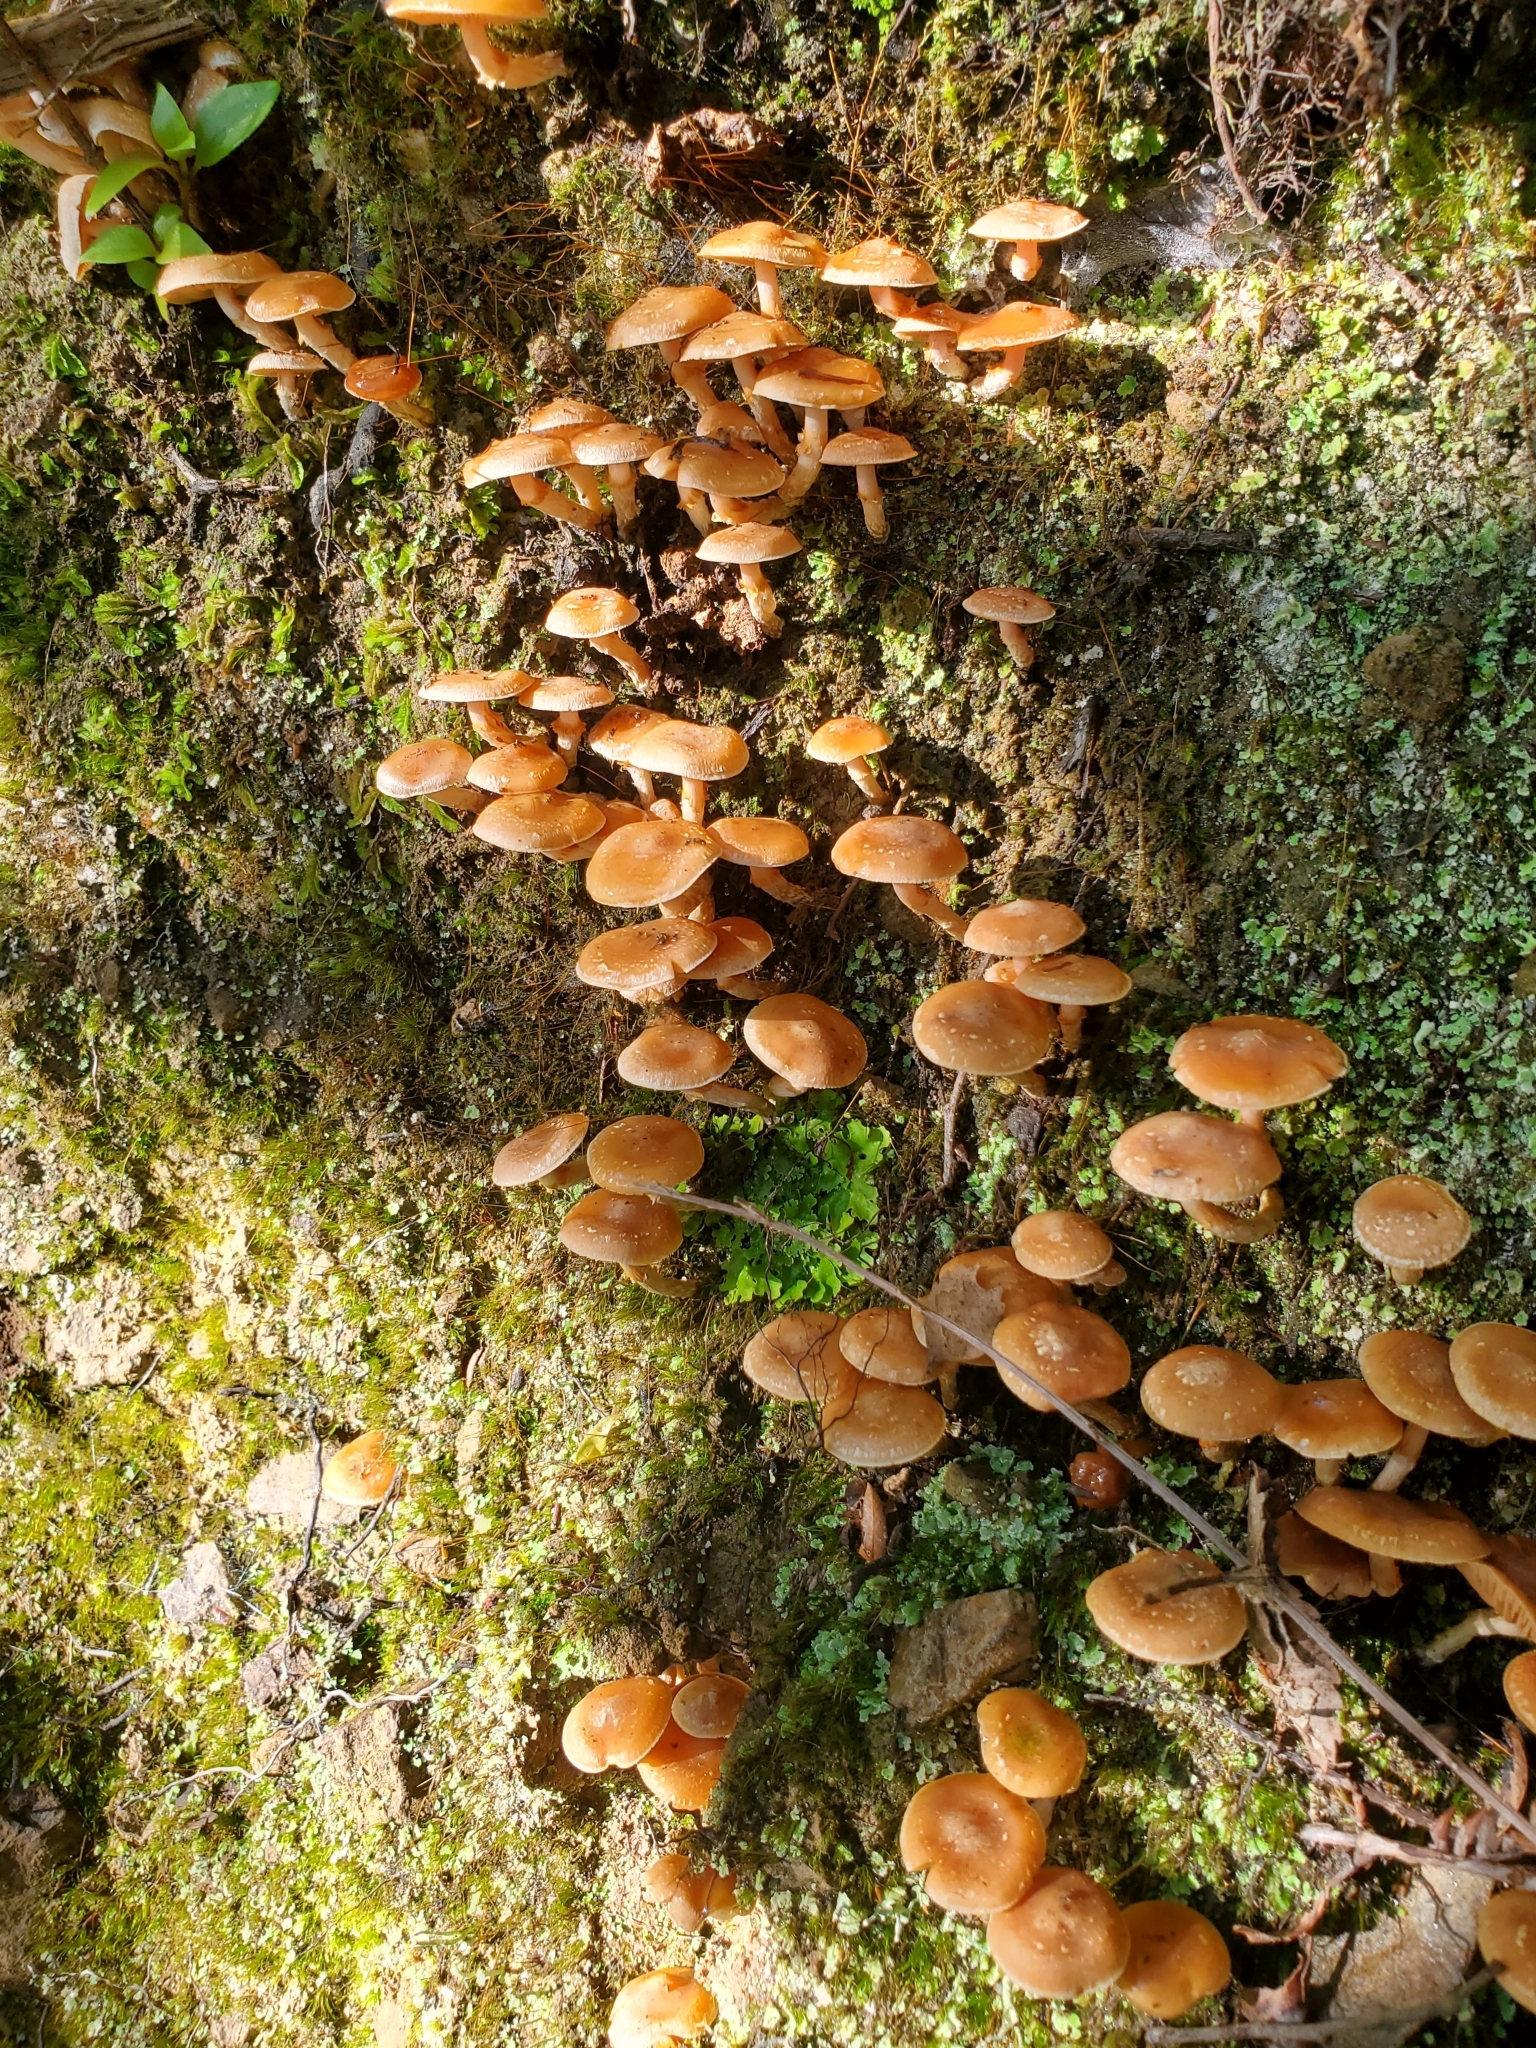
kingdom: Fungi
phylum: Basidiomycota
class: Agaricomycetes
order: Agaricales
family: Strophariaceae
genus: Hypholoma
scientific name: Hypholoma acutum
